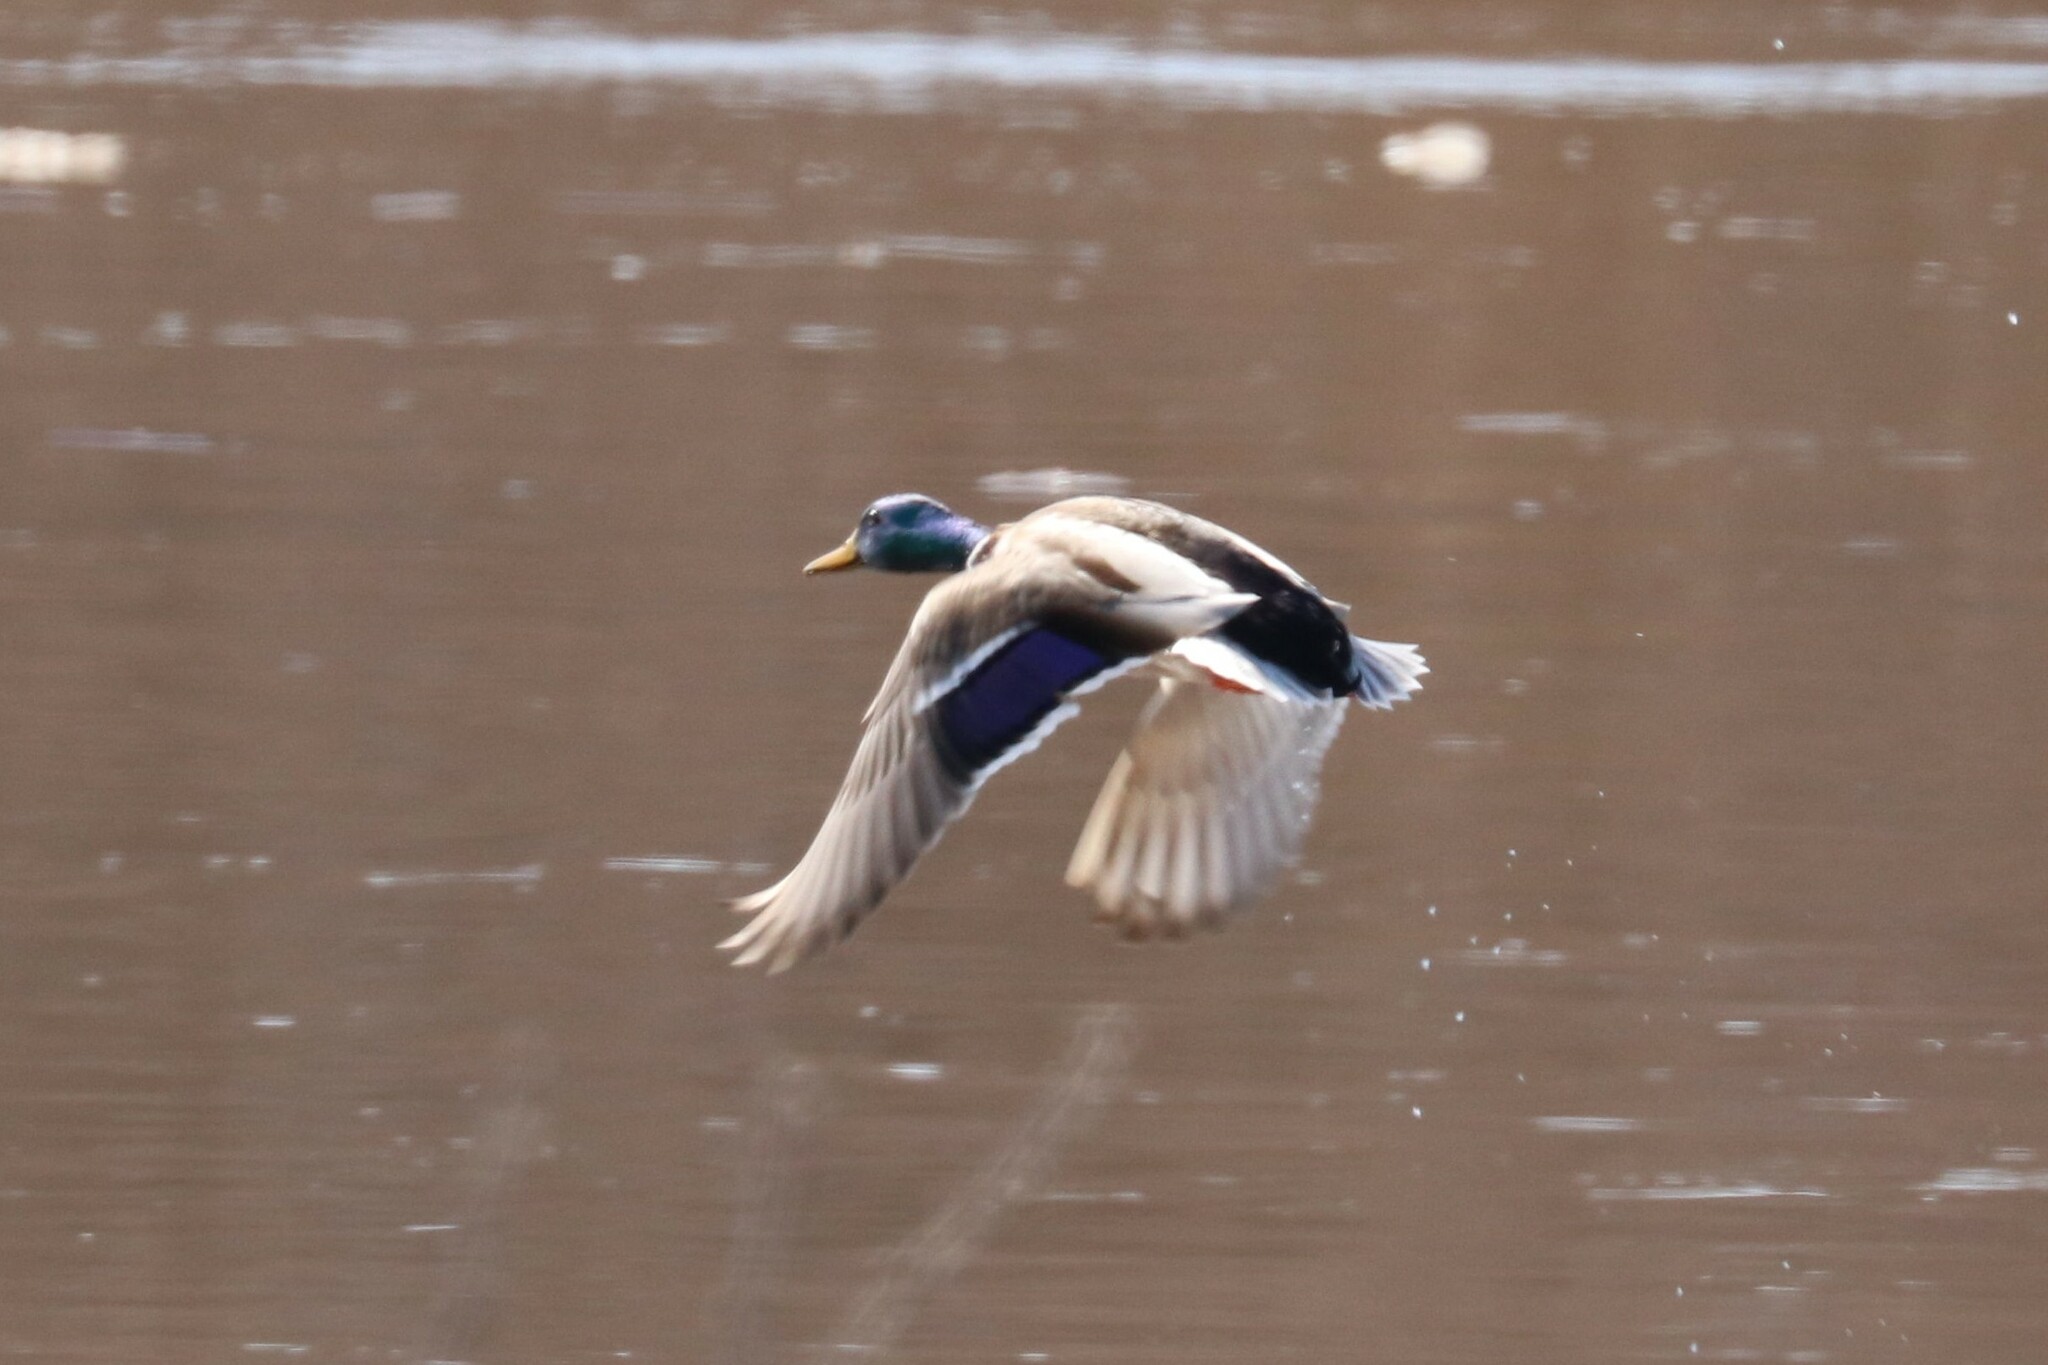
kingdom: Animalia
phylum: Chordata
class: Aves
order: Anseriformes
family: Anatidae
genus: Anas
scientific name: Anas platyrhynchos
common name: Mallard
